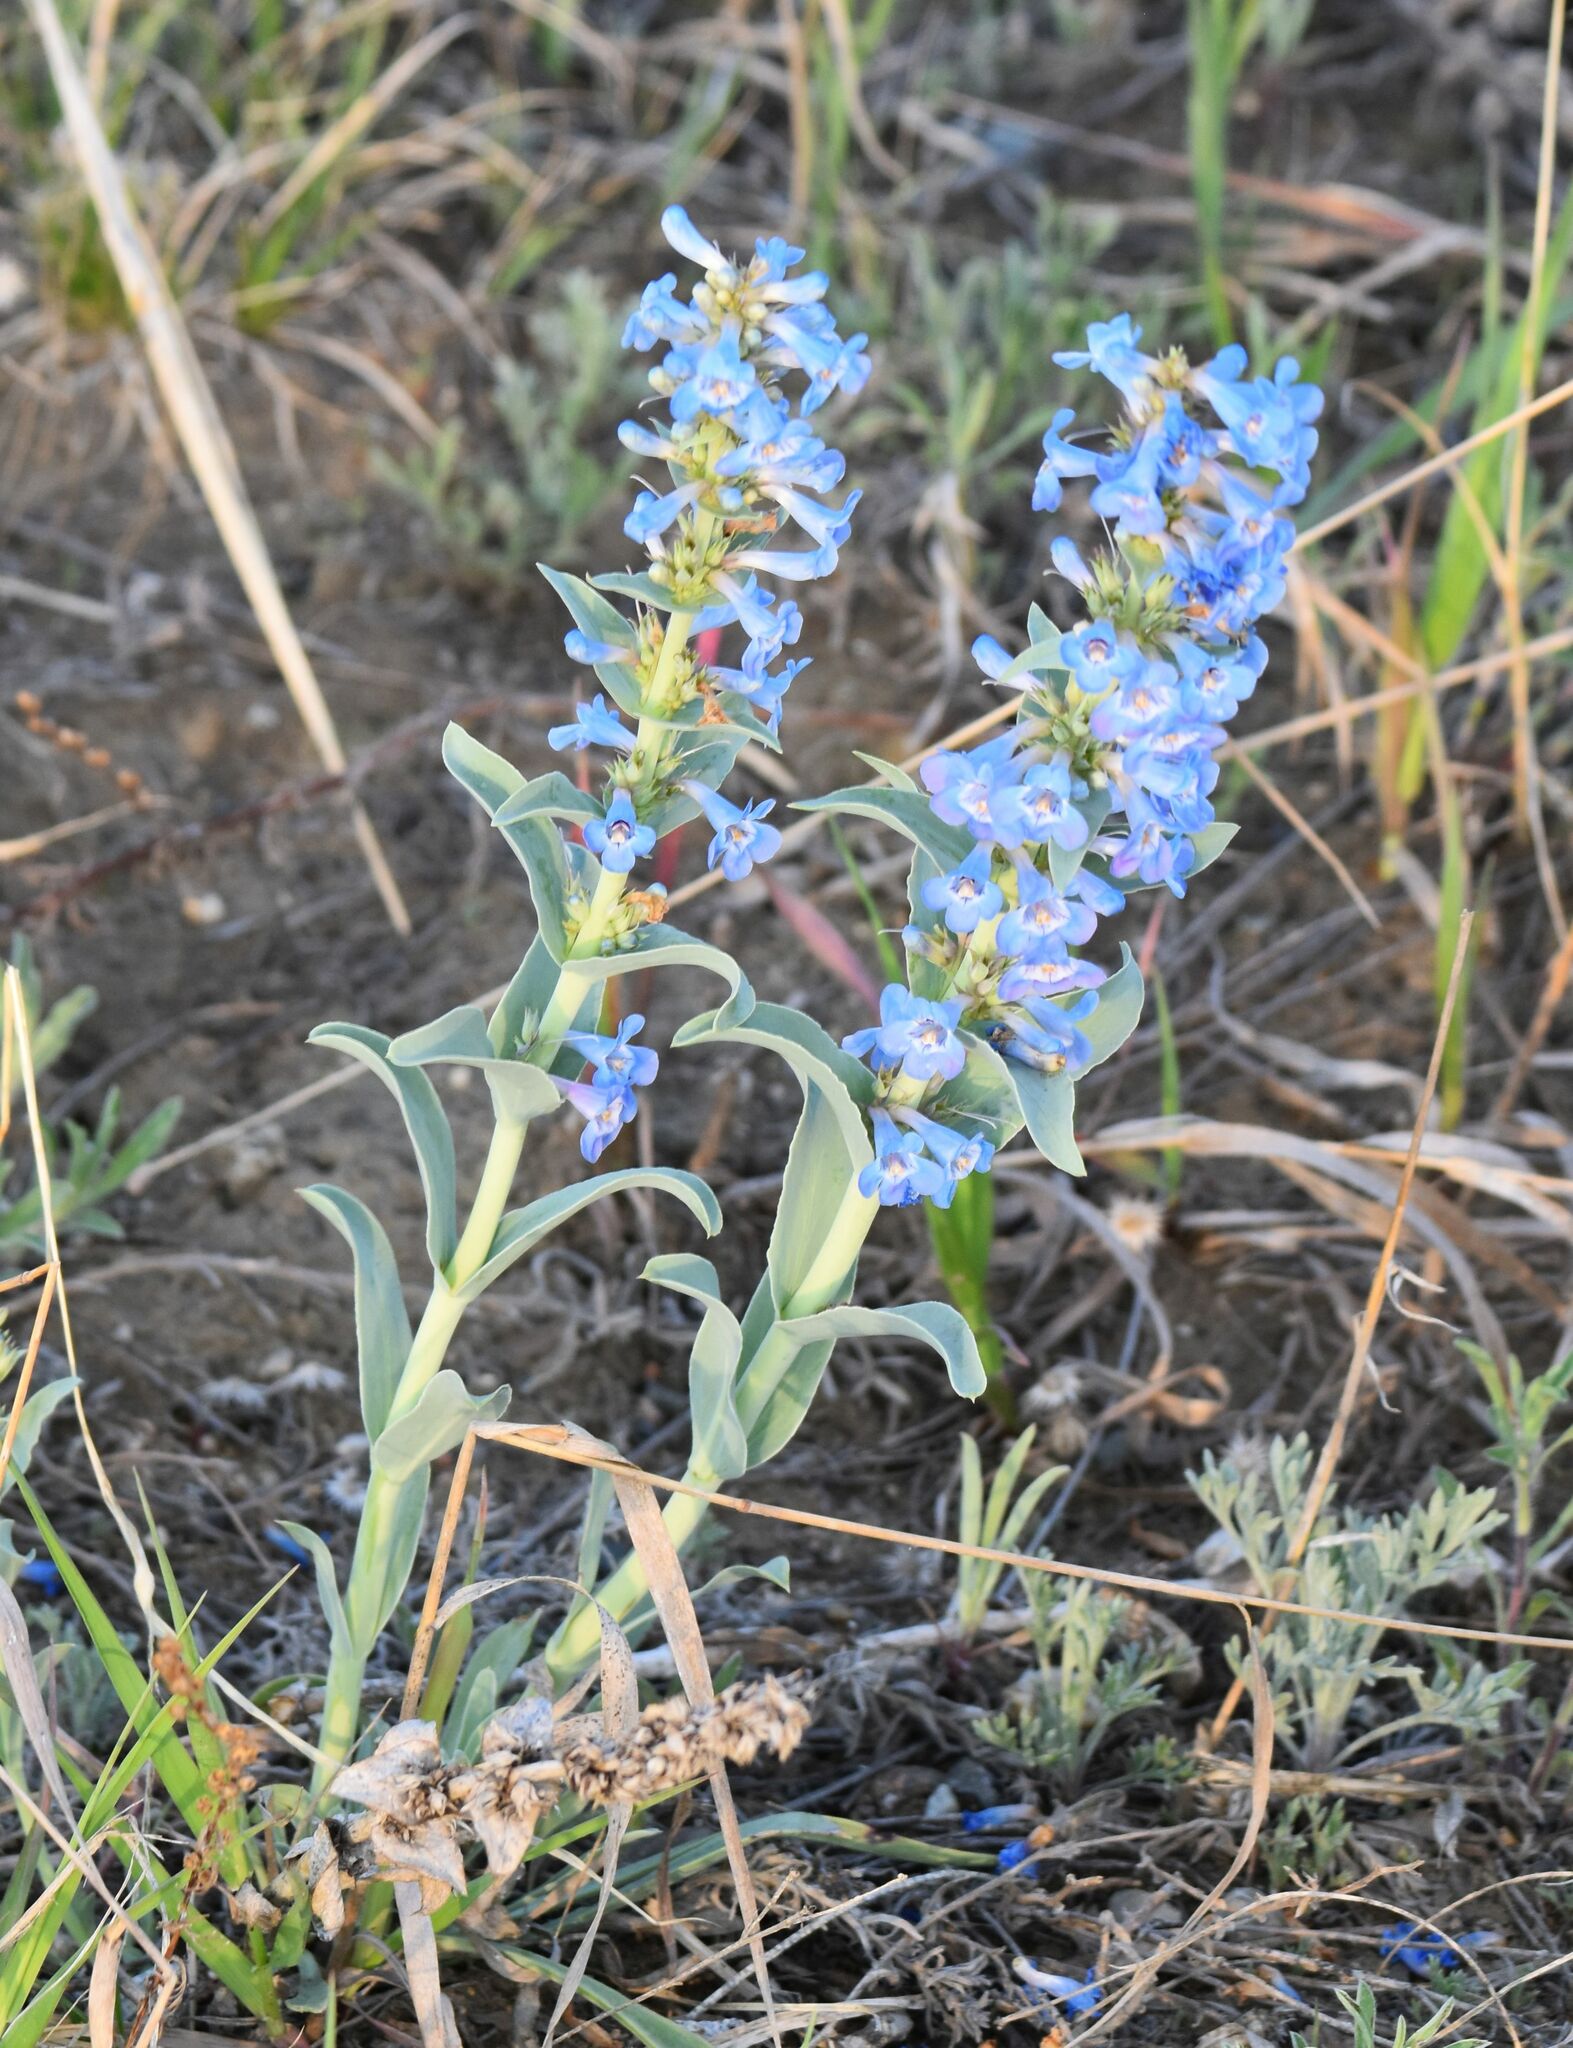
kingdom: Plantae
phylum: Tracheophyta
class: Magnoliopsida
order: Lamiales
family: Plantaginaceae
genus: Penstemon
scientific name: Penstemon nitidus
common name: Shining penstemon
